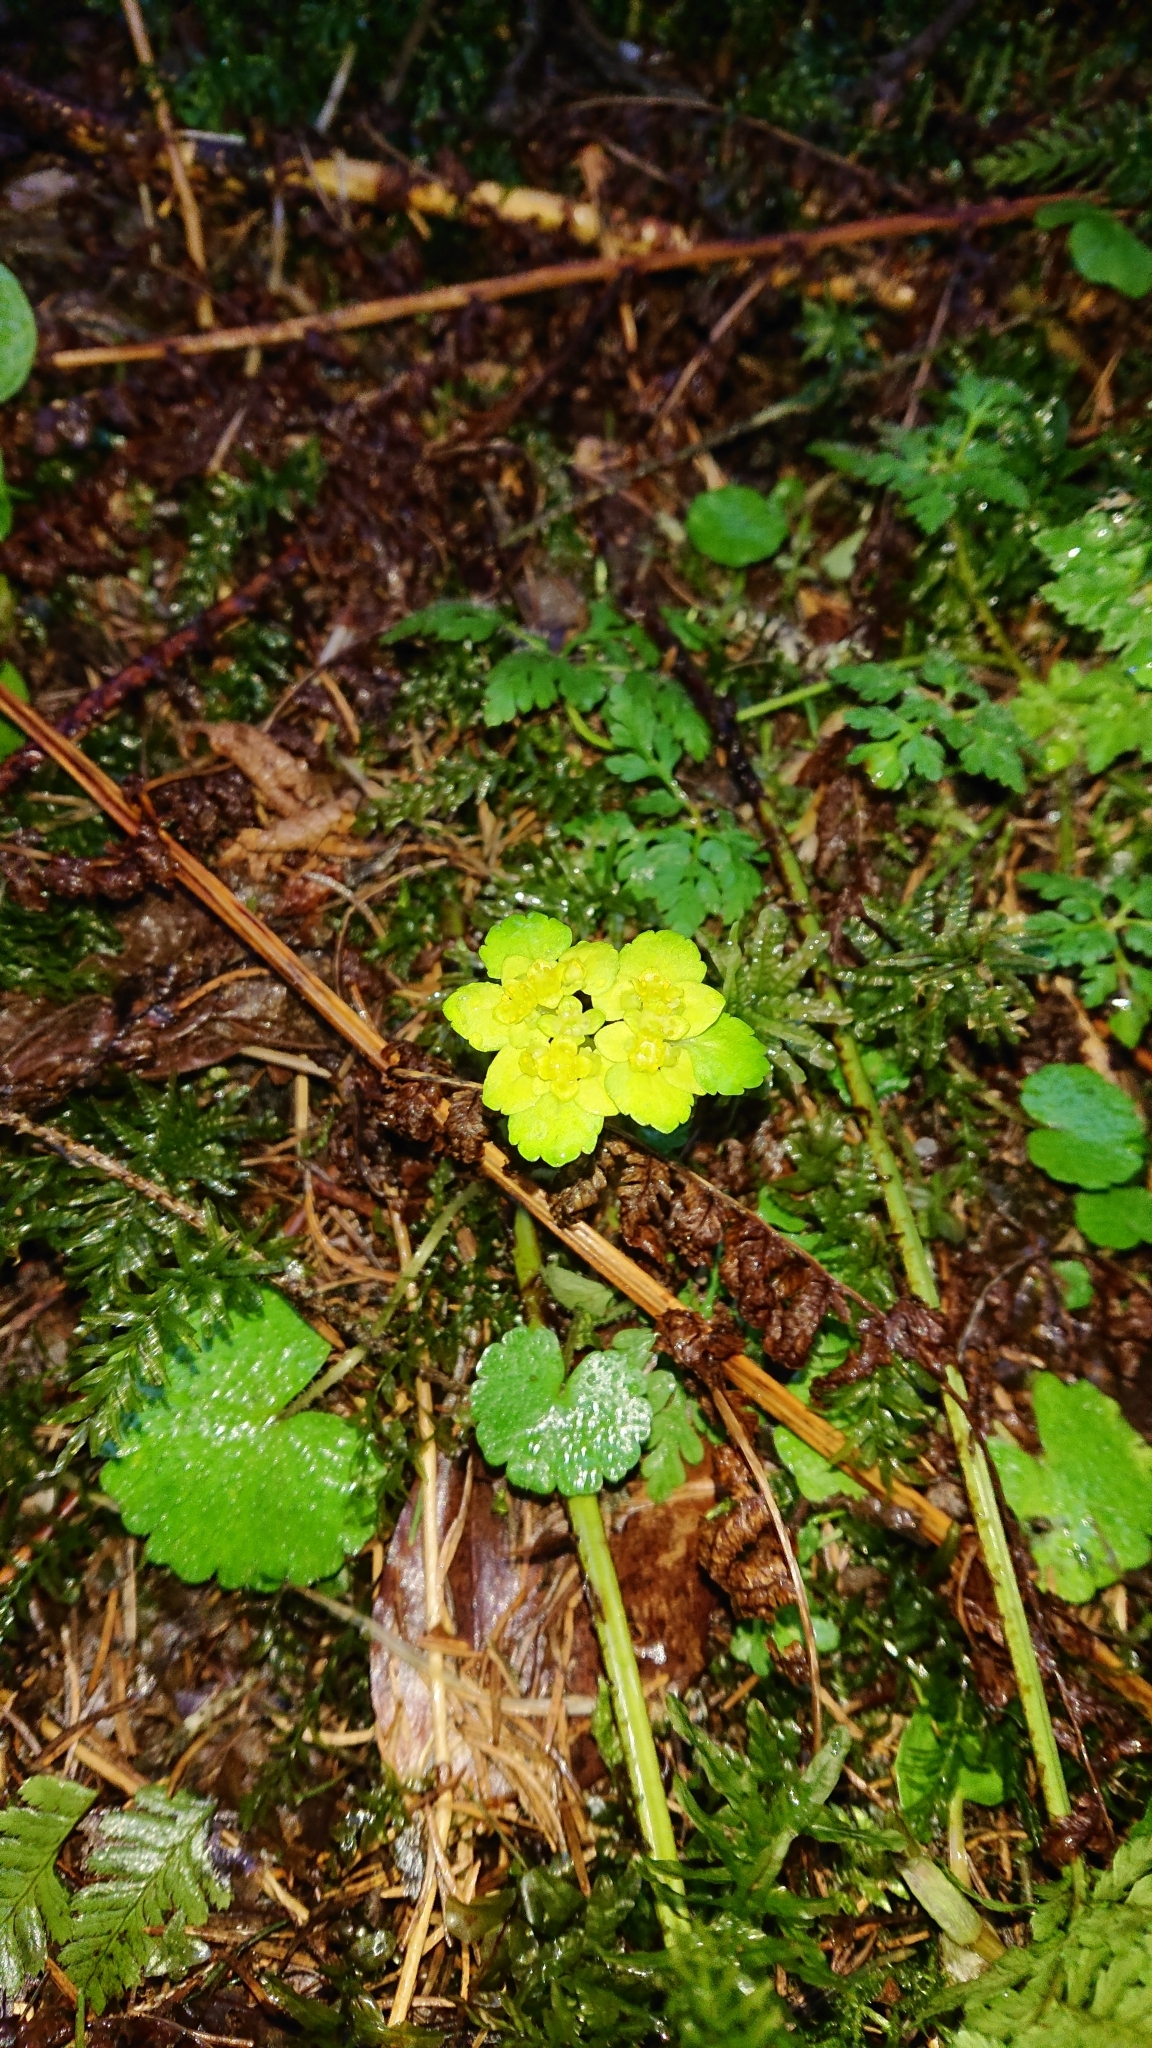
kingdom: Plantae
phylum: Tracheophyta
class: Magnoliopsida
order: Saxifragales
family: Saxifragaceae
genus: Chrysosplenium
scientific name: Chrysosplenium alternifolium
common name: Alternate-leaved golden-saxifrage
